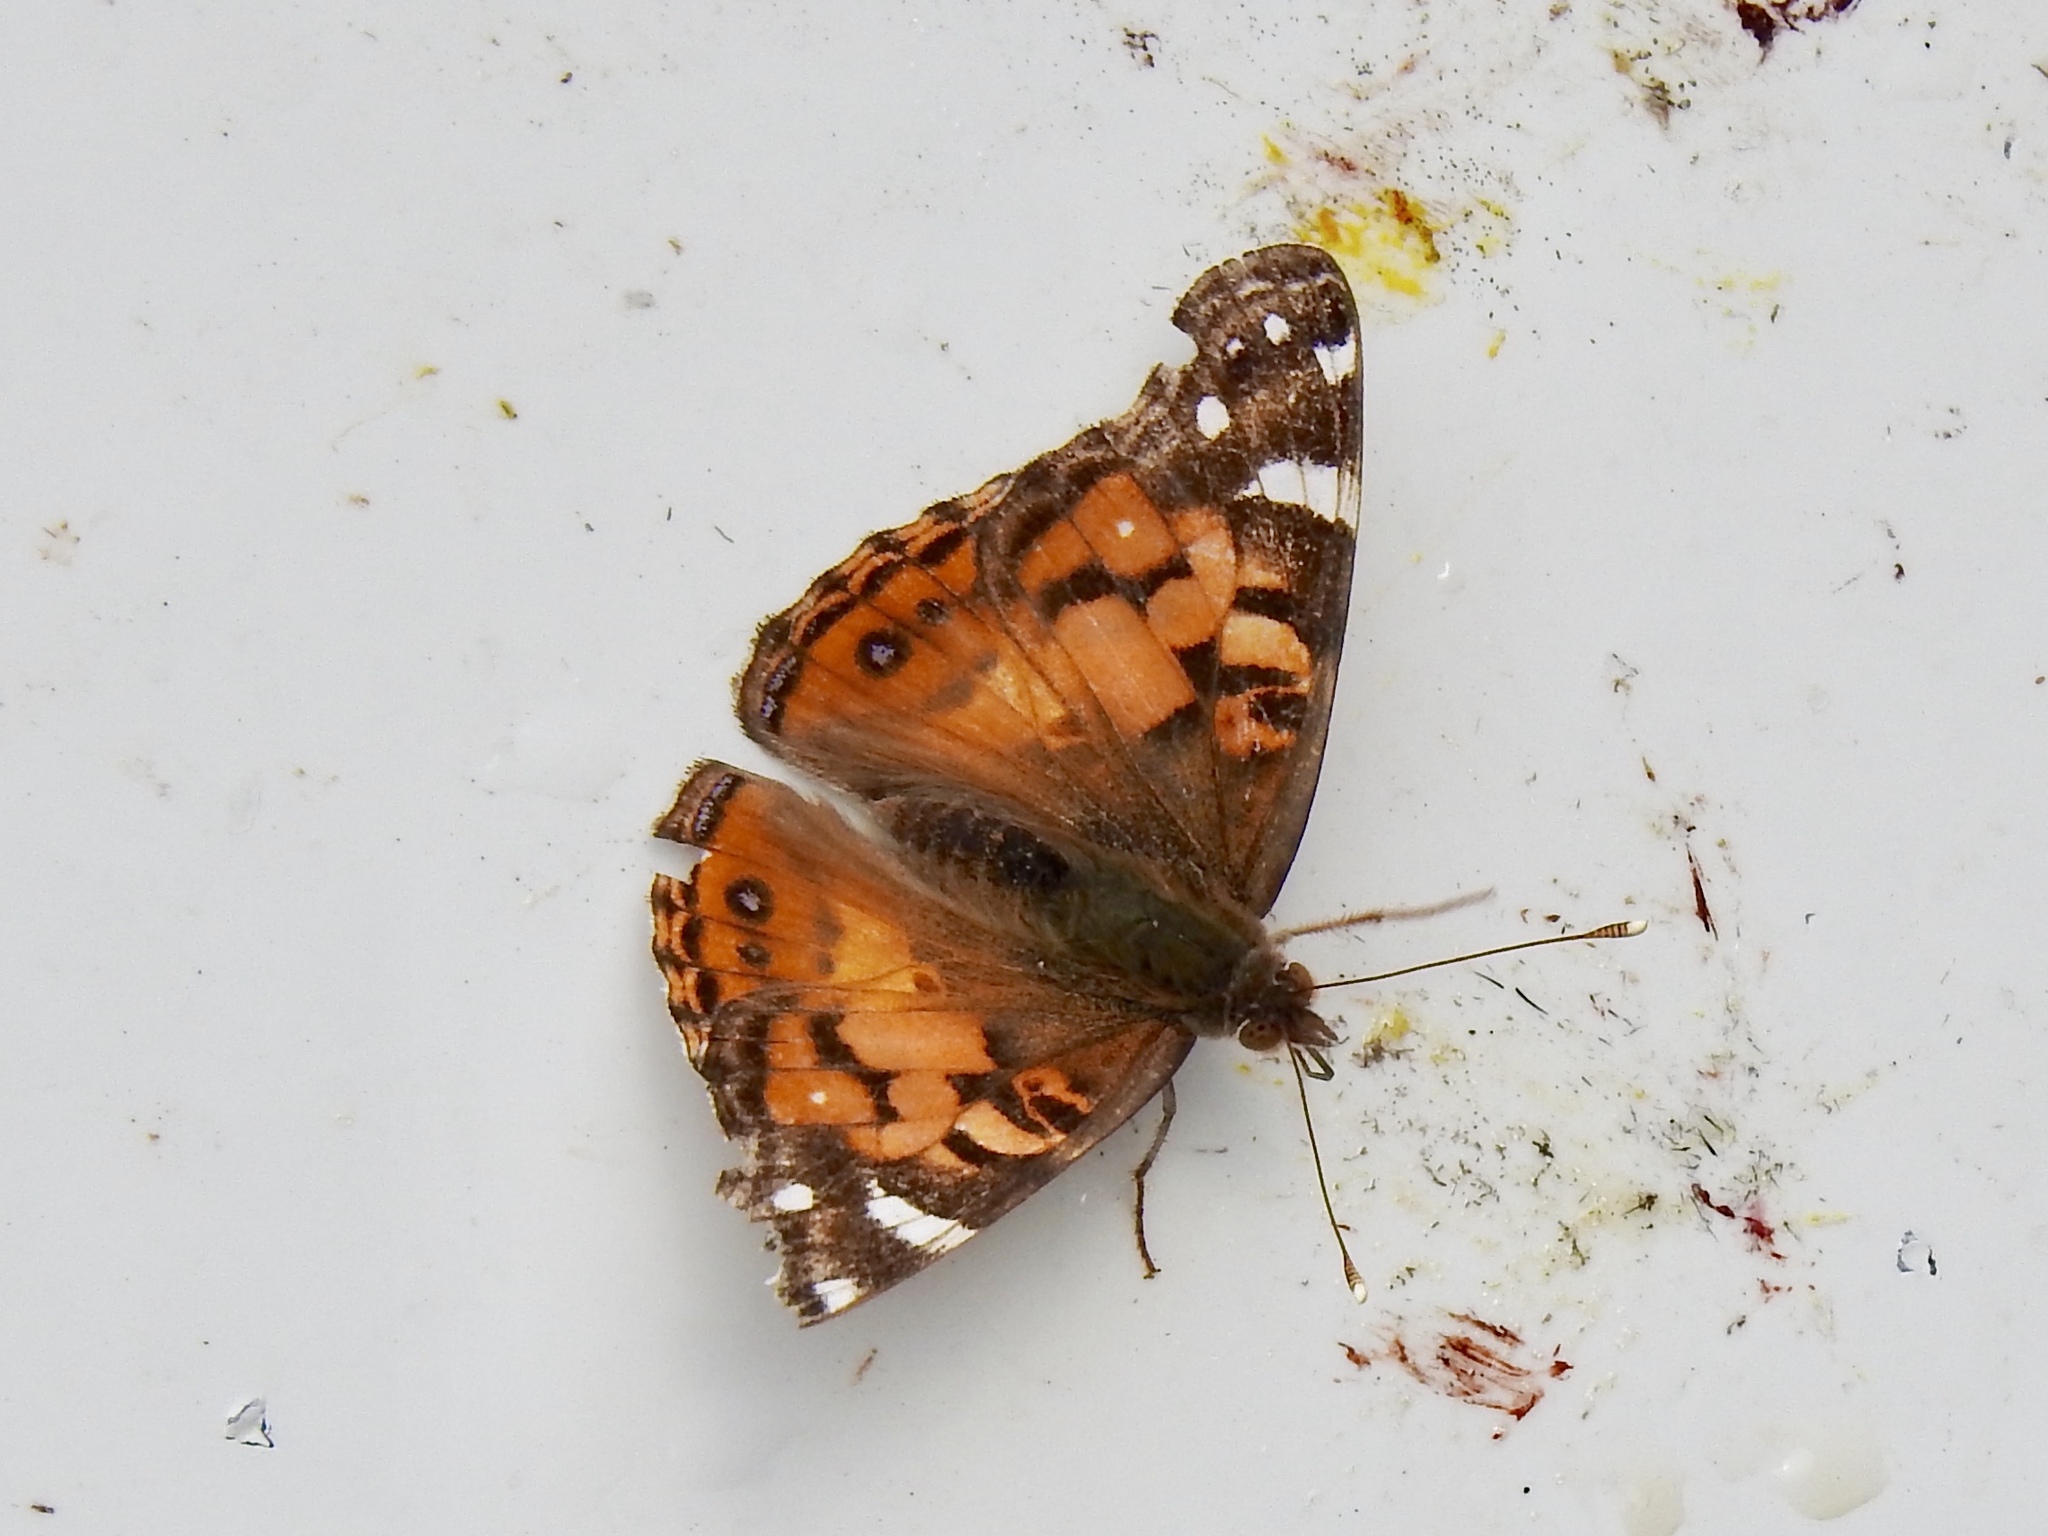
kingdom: Animalia
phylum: Arthropoda
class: Insecta
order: Lepidoptera
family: Nymphalidae
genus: Vanessa
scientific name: Vanessa virginiensis
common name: American lady
